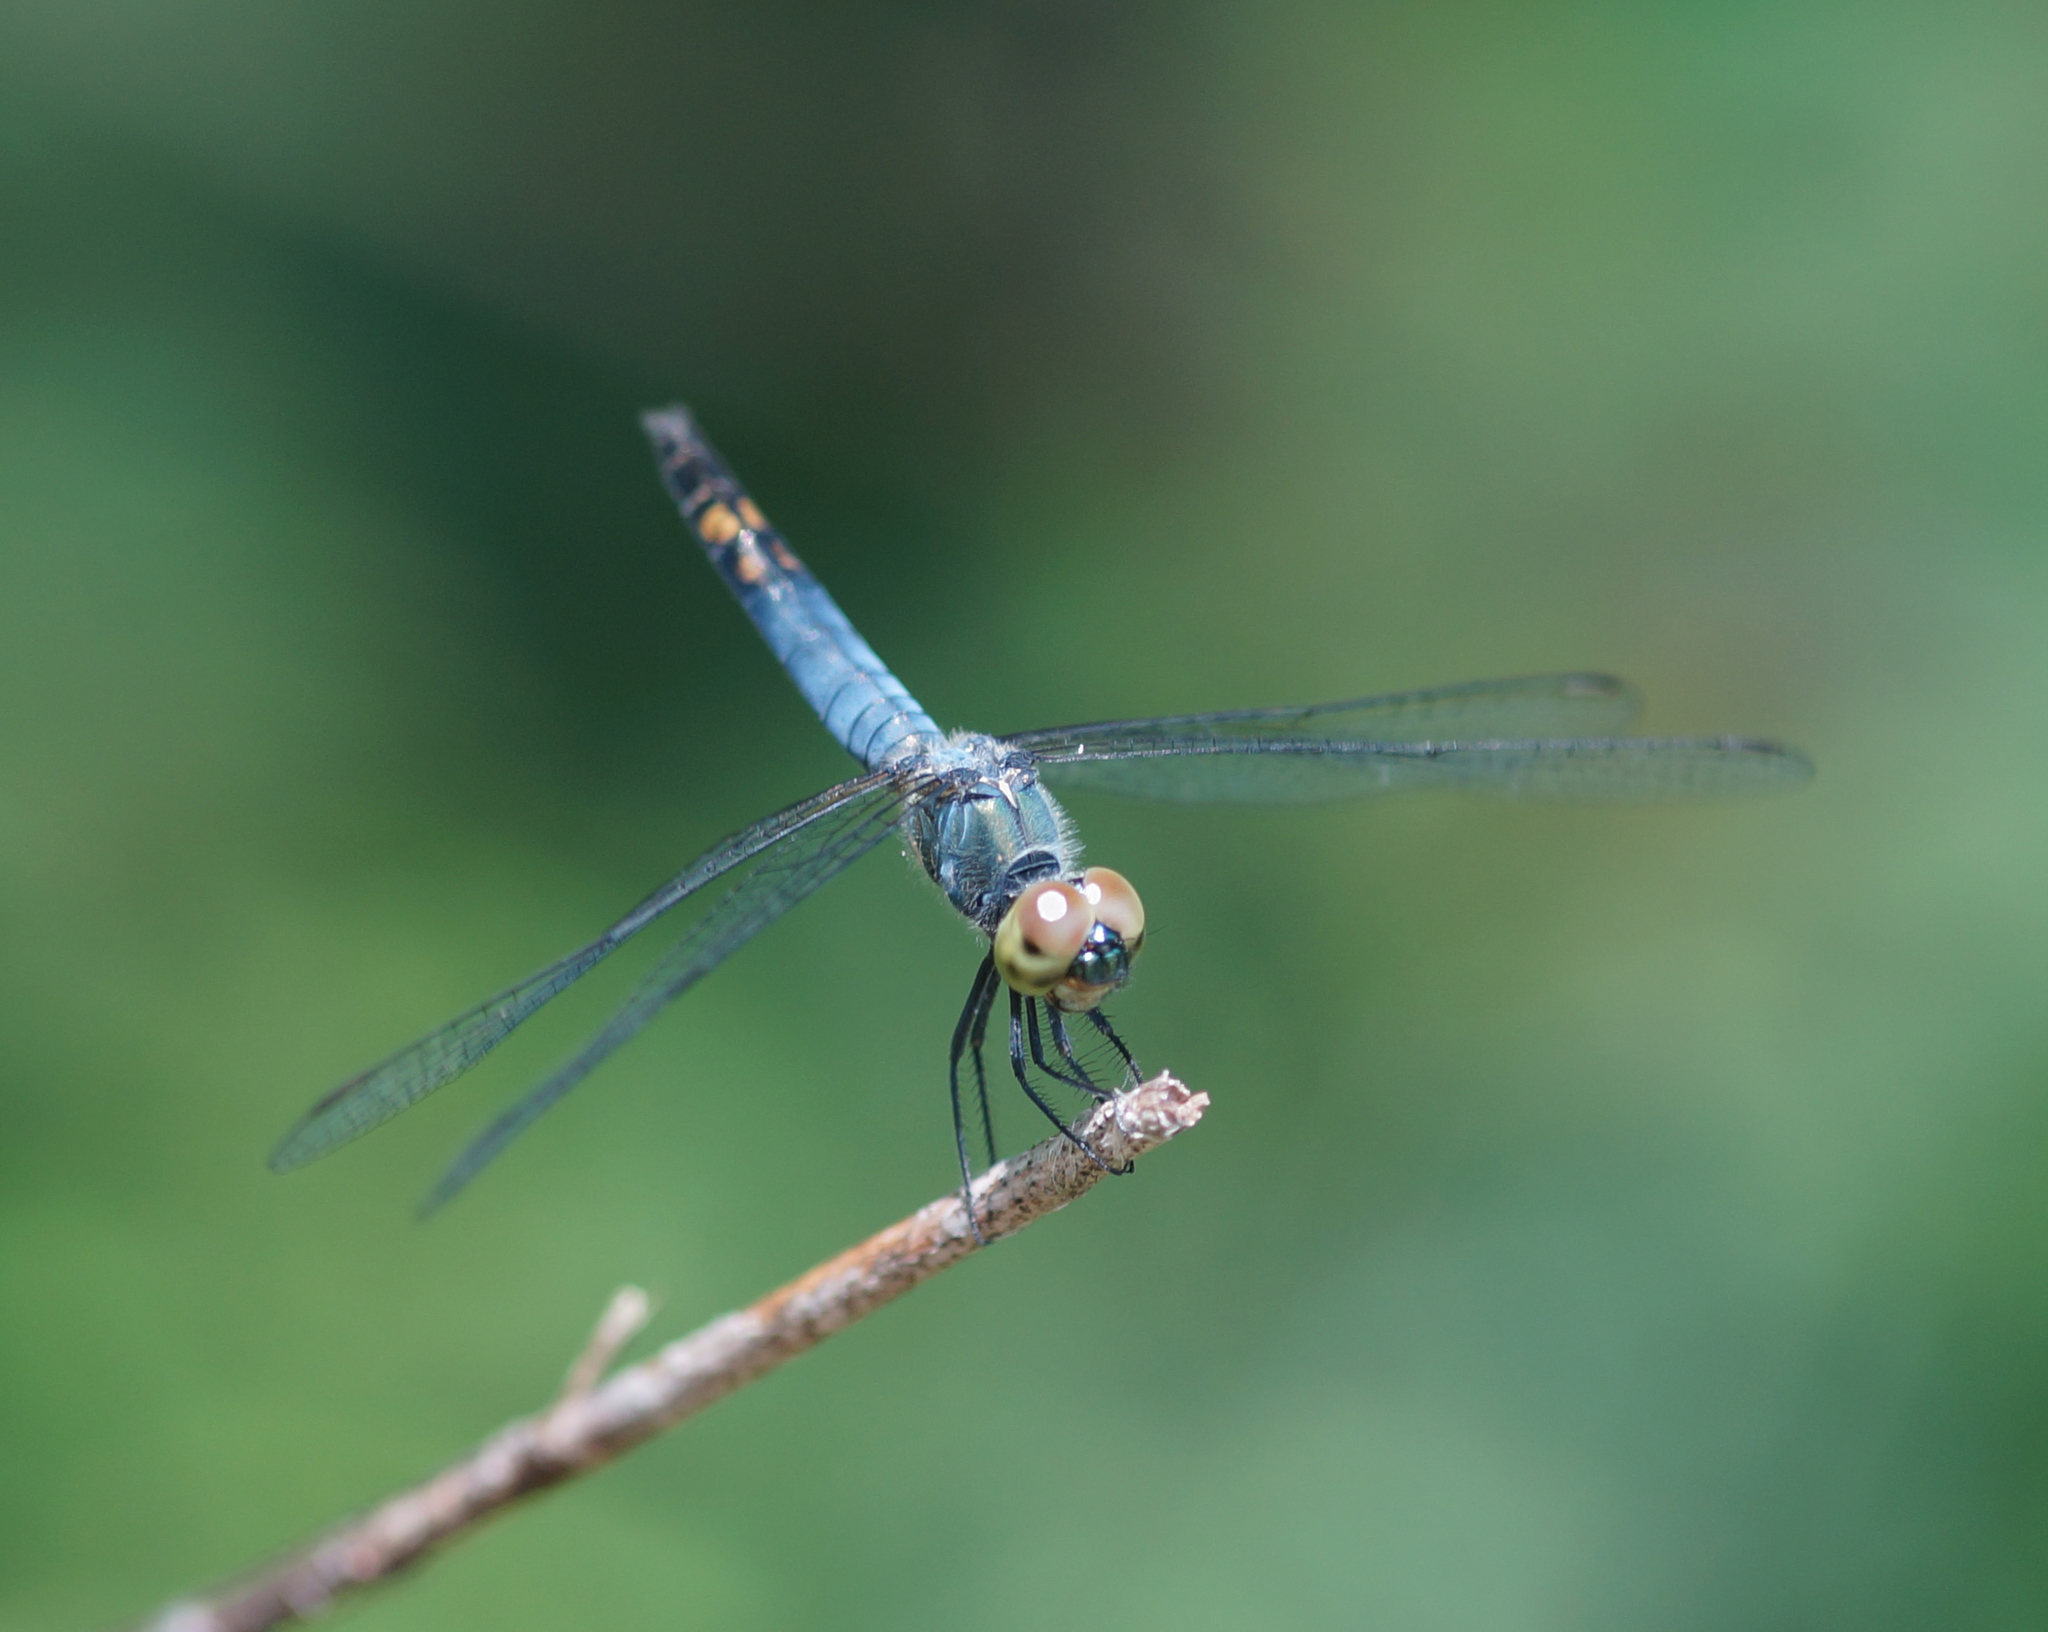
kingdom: Animalia
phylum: Arthropoda
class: Insecta
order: Odonata
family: Libellulidae
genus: Brachydiplax
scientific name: Brachydiplax farinosa
